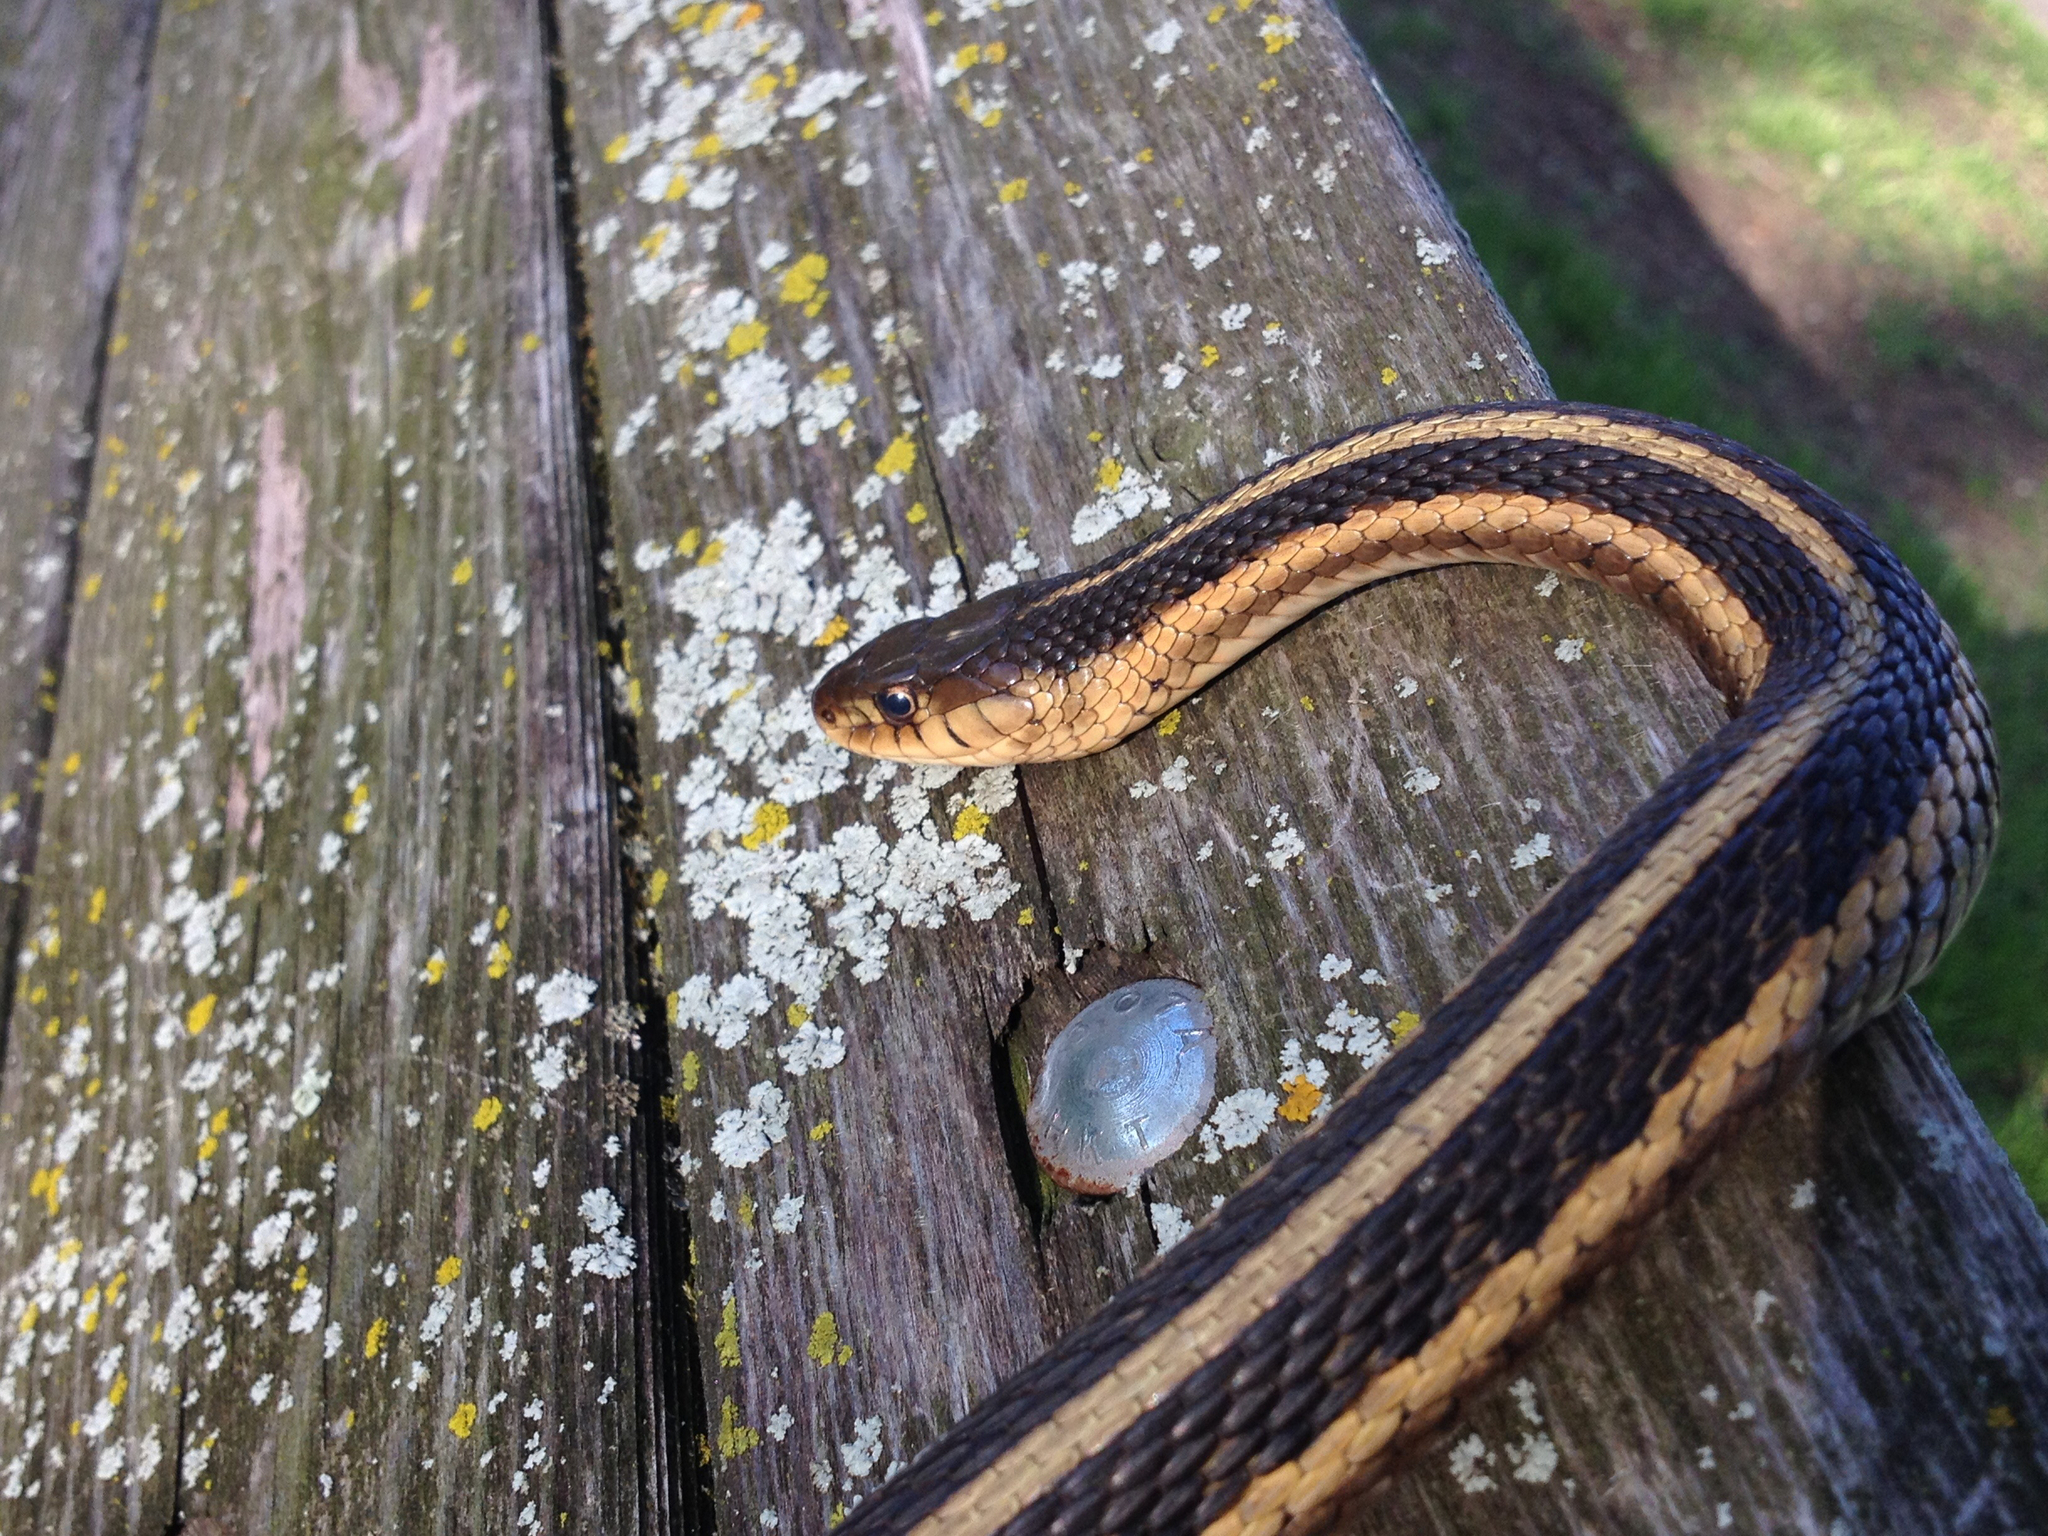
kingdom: Animalia
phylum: Chordata
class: Squamata
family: Colubridae
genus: Thamnophis
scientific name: Thamnophis sirtalis
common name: Common garter snake
